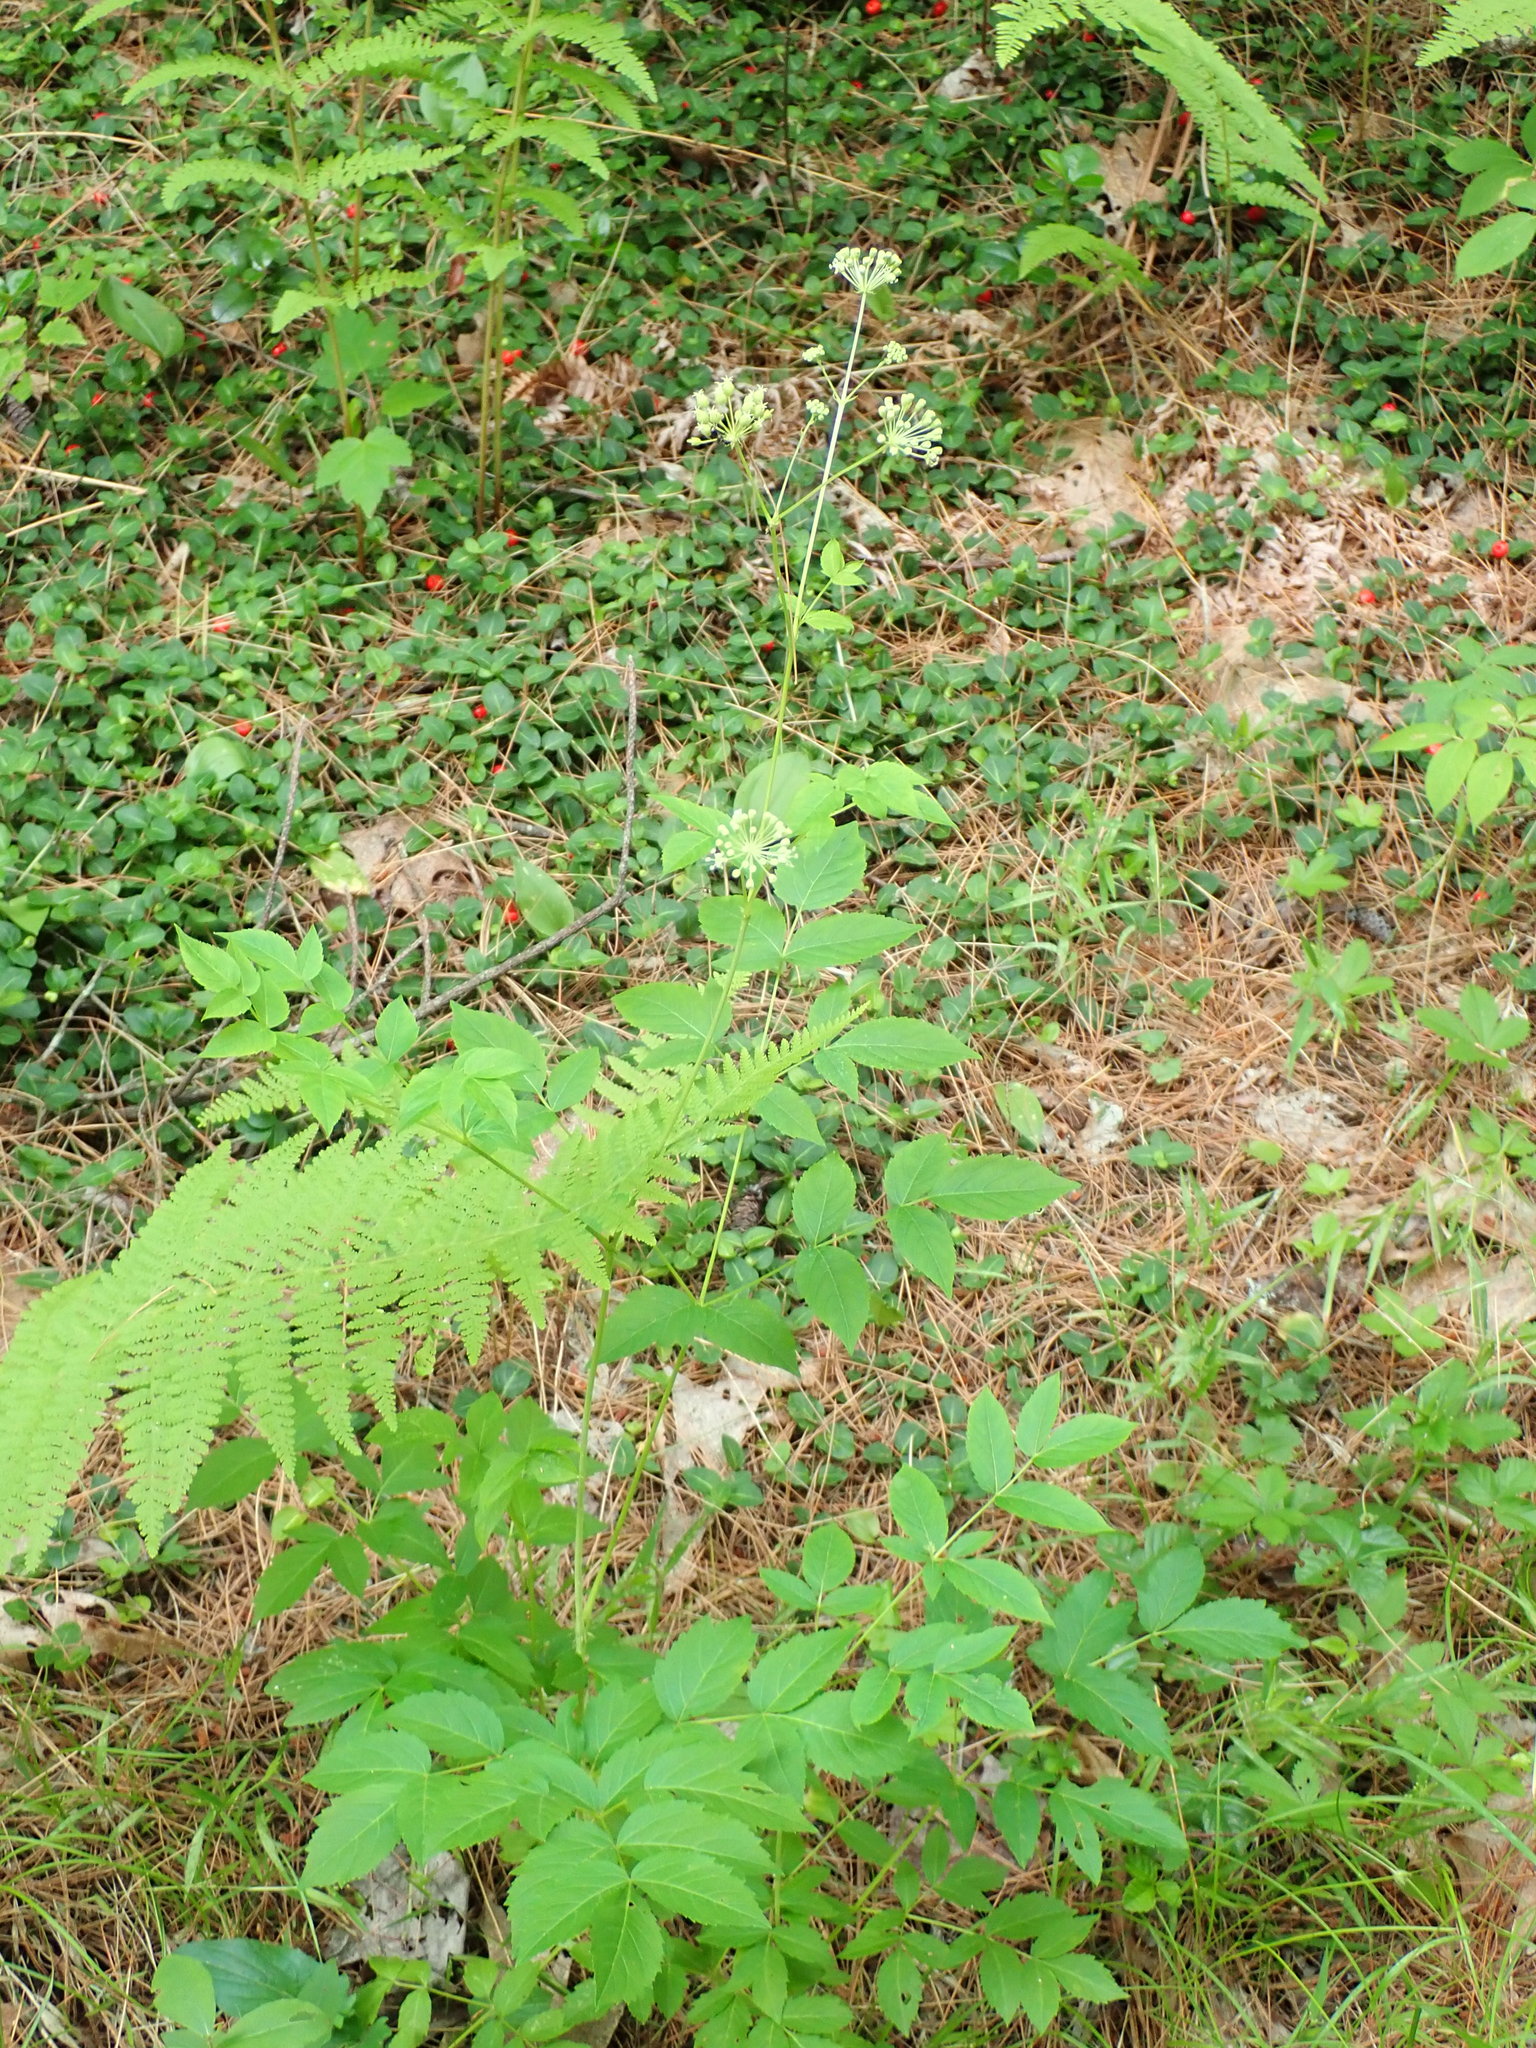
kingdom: Plantae
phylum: Tracheophyta
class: Magnoliopsida
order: Apiales
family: Araliaceae
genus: Aralia
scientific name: Aralia hispida
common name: Bristly sarsaparilla
